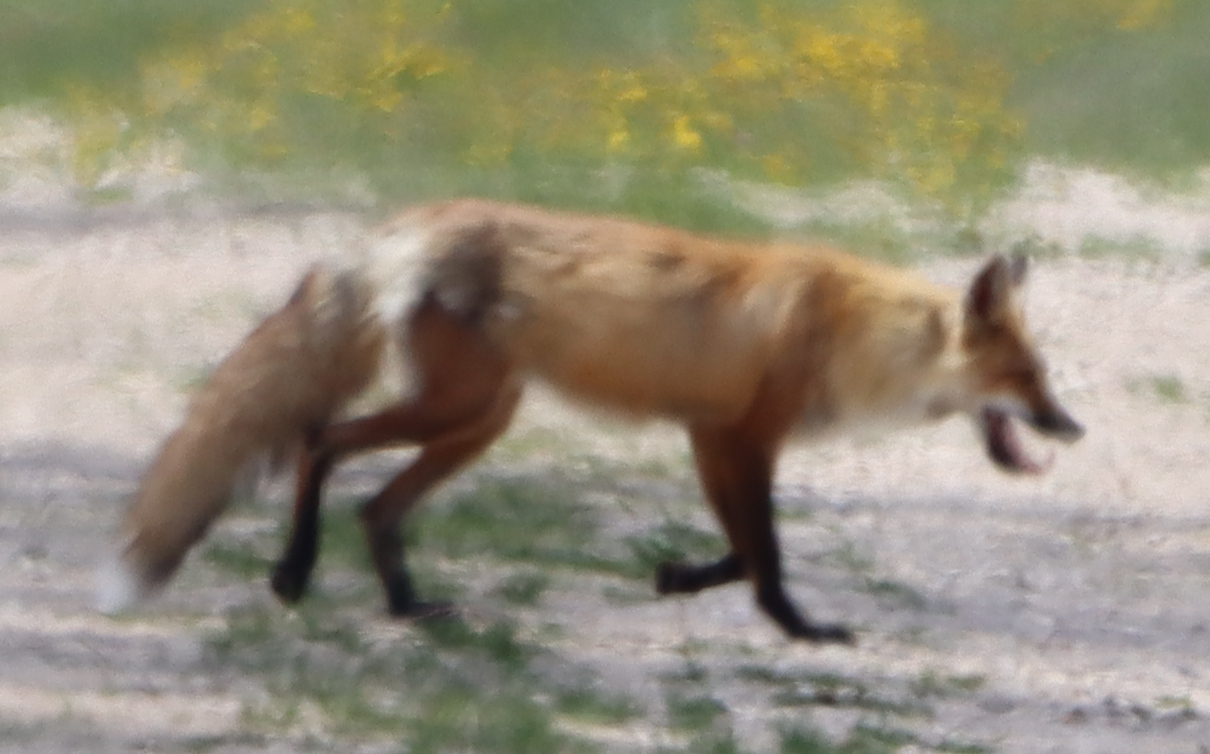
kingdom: Animalia
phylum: Chordata
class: Mammalia
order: Carnivora
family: Canidae
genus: Vulpes
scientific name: Vulpes vulpes
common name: Red fox
